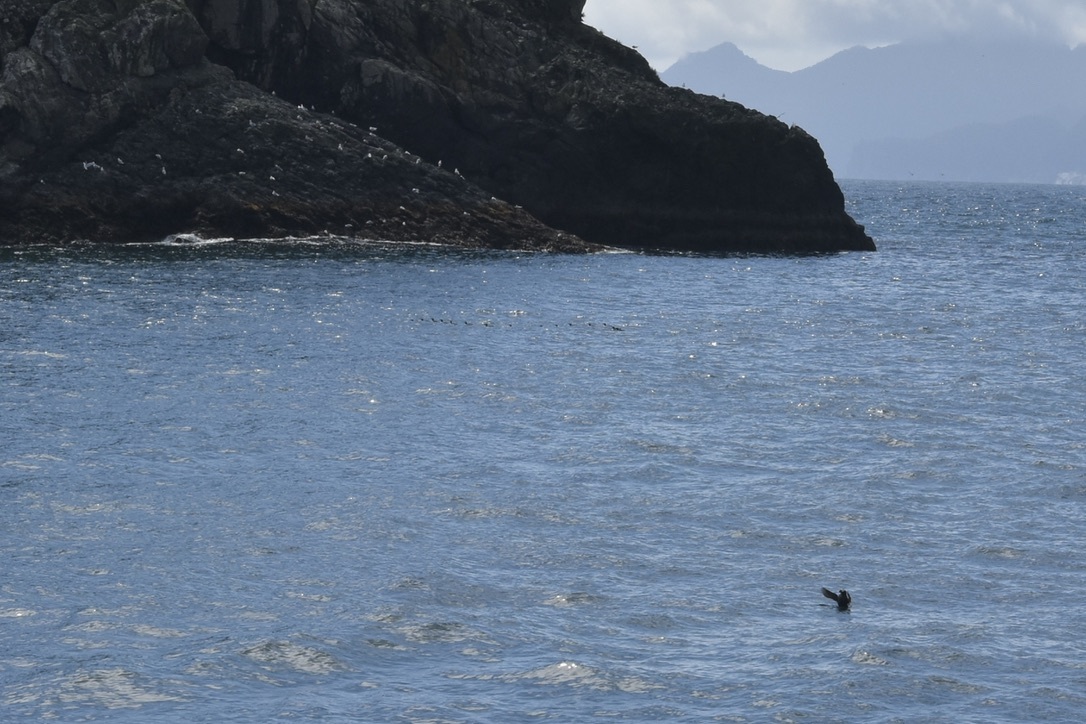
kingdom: Animalia
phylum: Chordata
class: Aves
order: Charadriiformes
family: Alcidae
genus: Fratercula
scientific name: Fratercula cirrhata
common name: Tufted puffin
